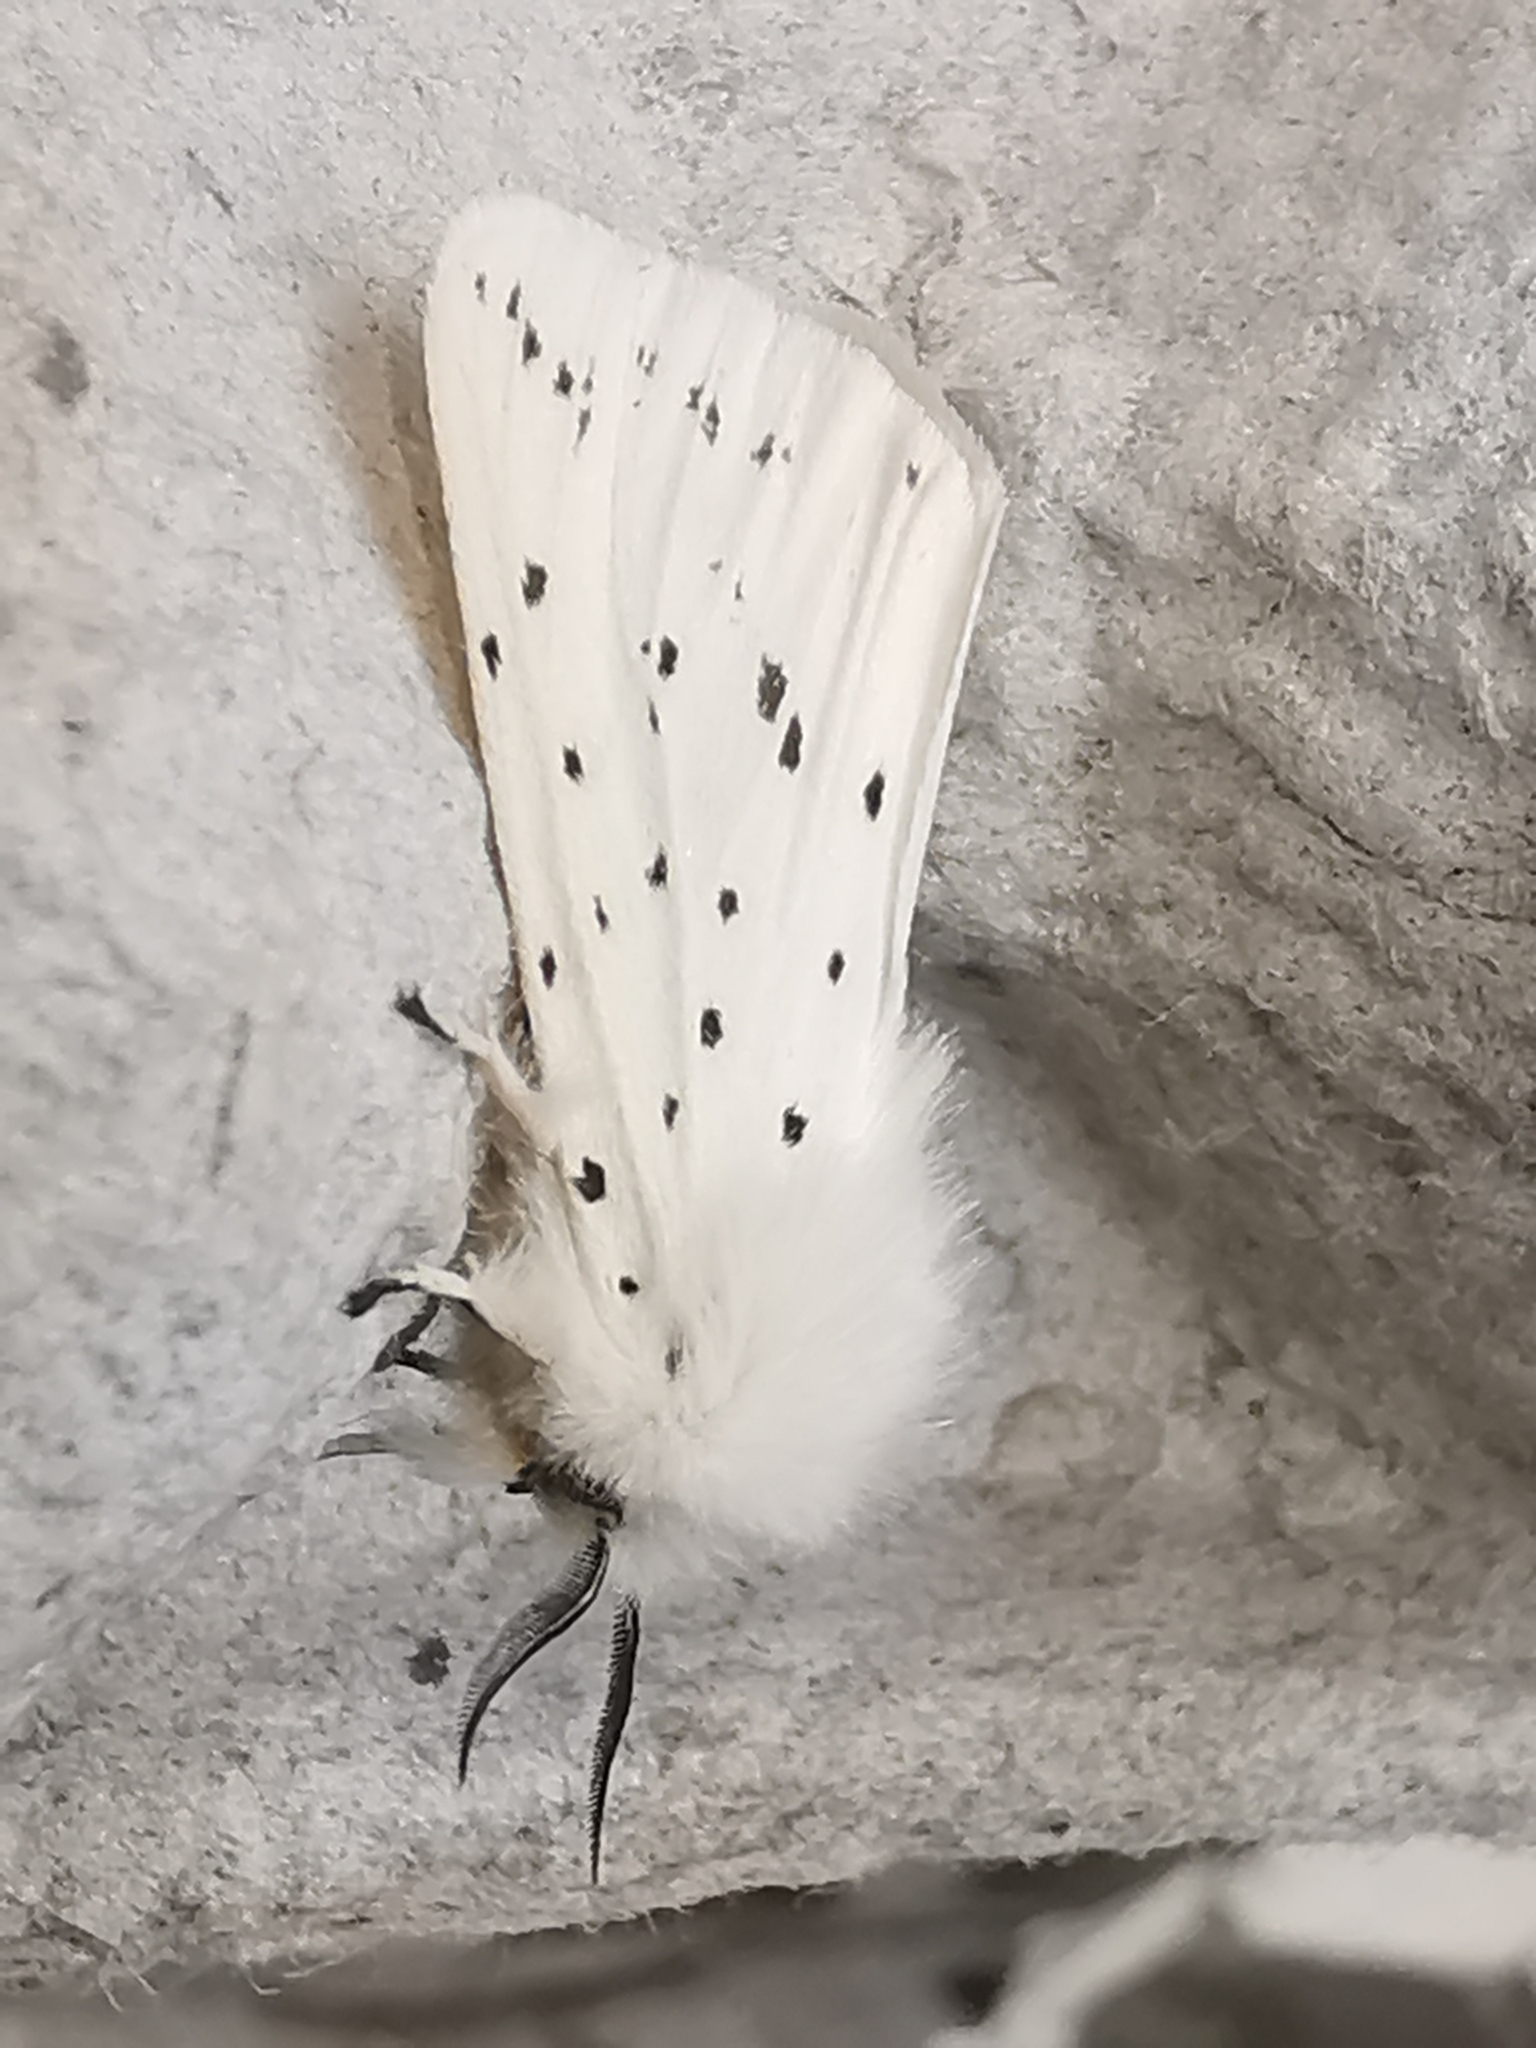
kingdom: Animalia
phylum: Arthropoda
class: Insecta
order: Lepidoptera
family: Erebidae
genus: Spilosoma
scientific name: Spilosoma lubricipeda
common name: White ermine
